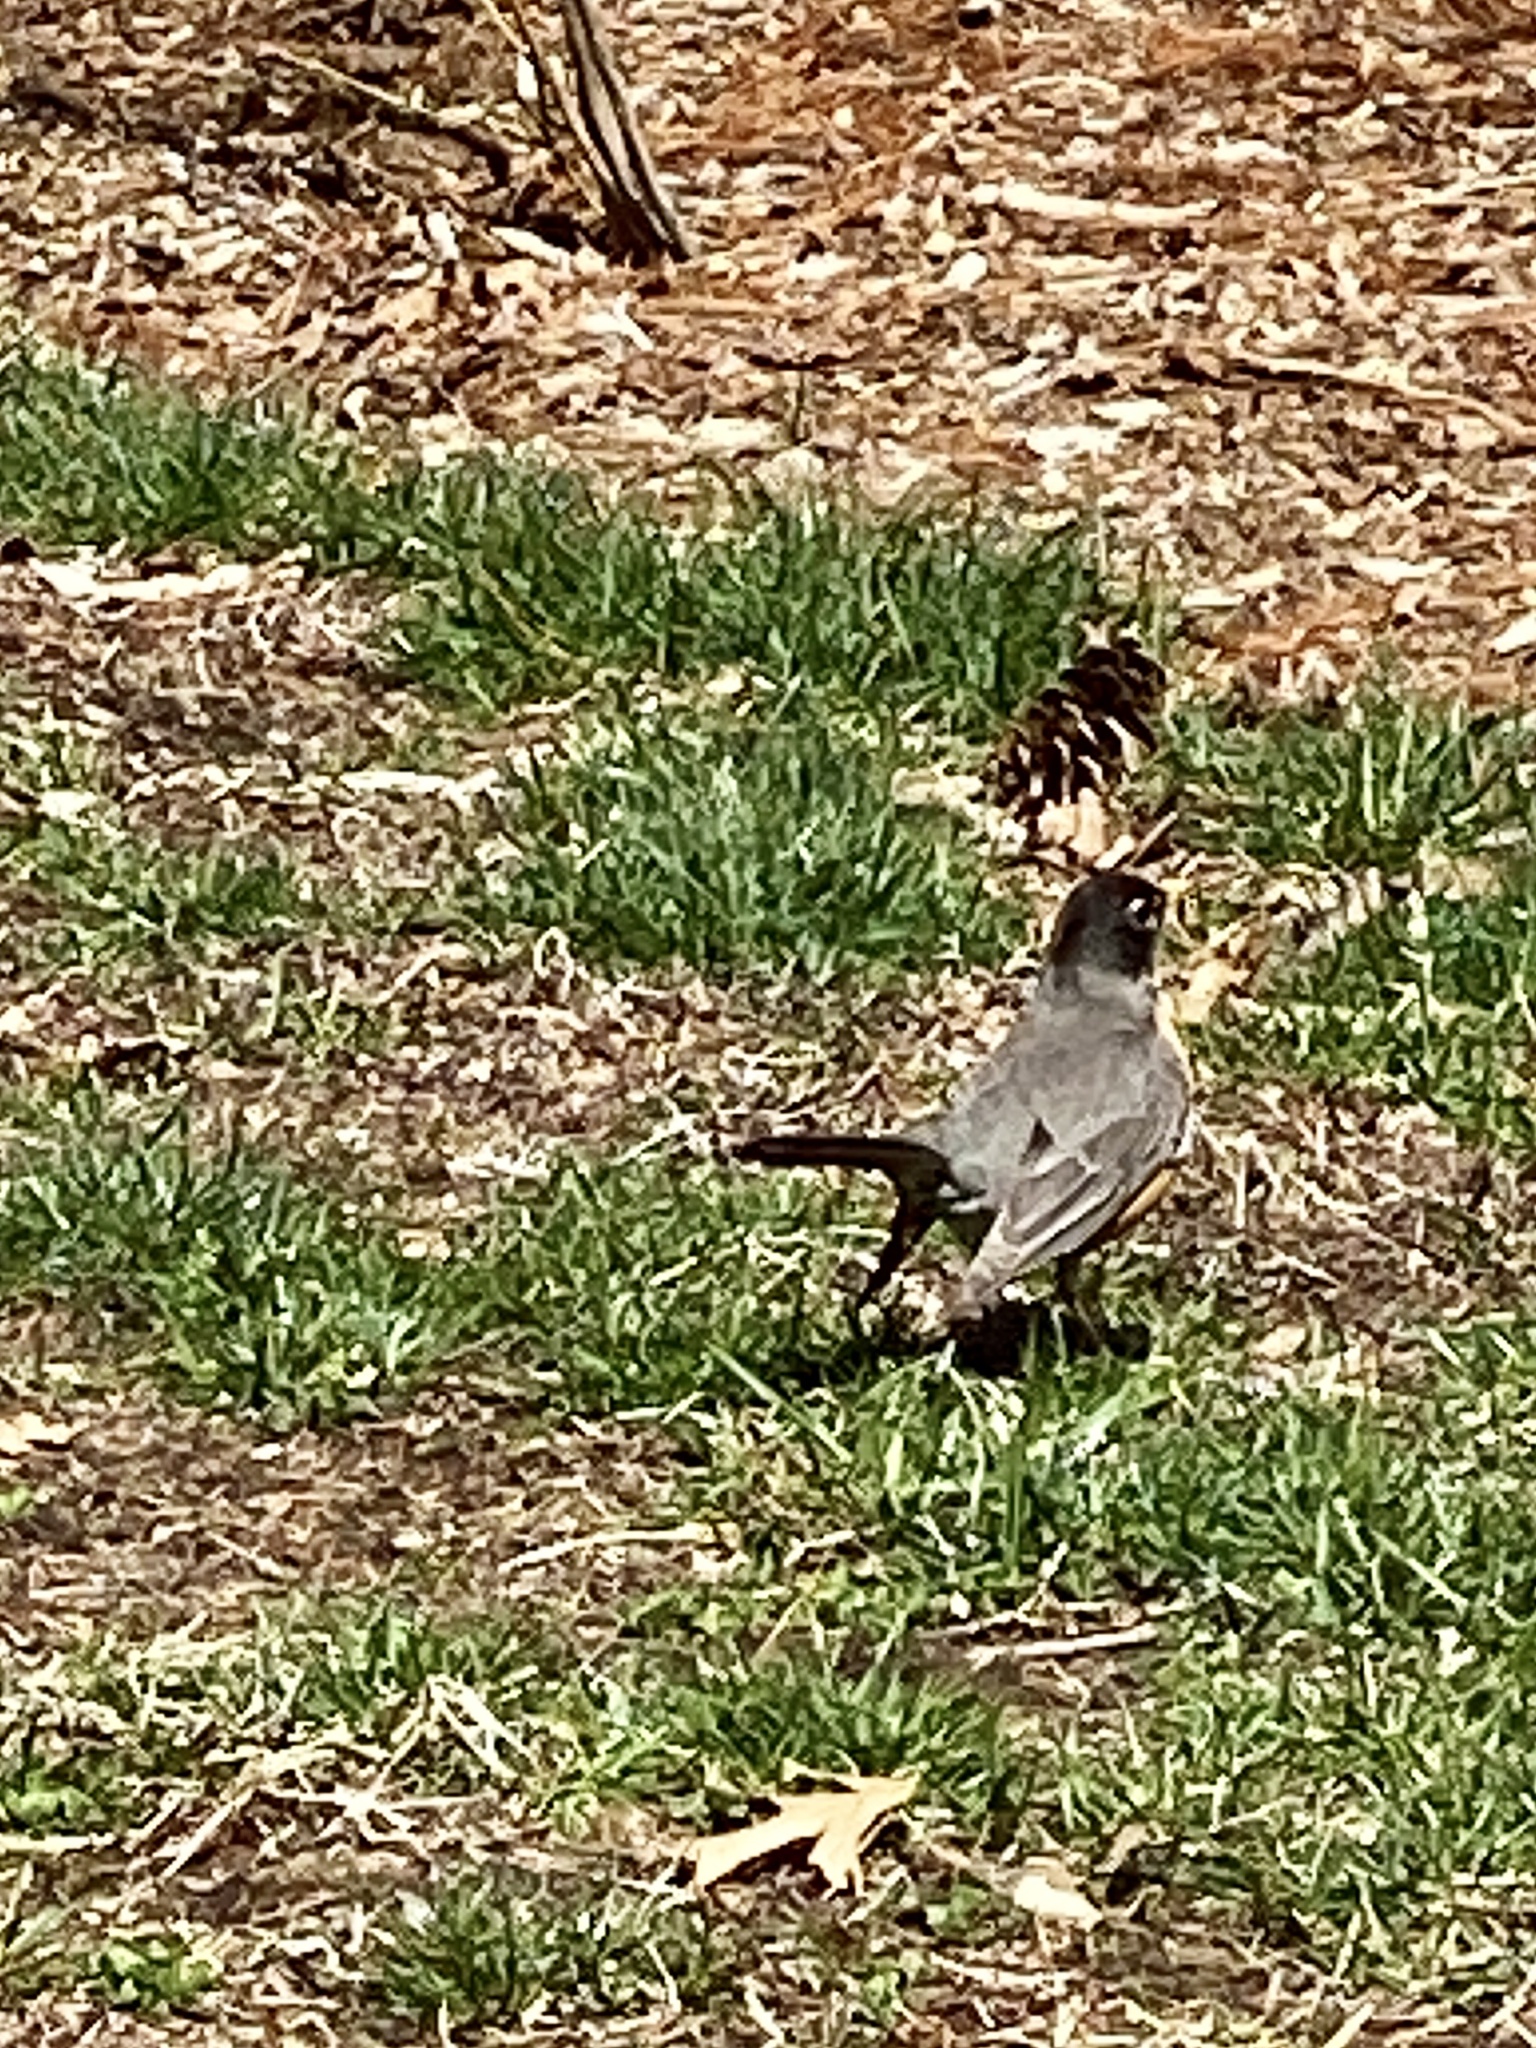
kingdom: Animalia
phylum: Chordata
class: Aves
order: Passeriformes
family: Turdidae
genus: Turdus
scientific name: Turdus migratorius
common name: American robin
